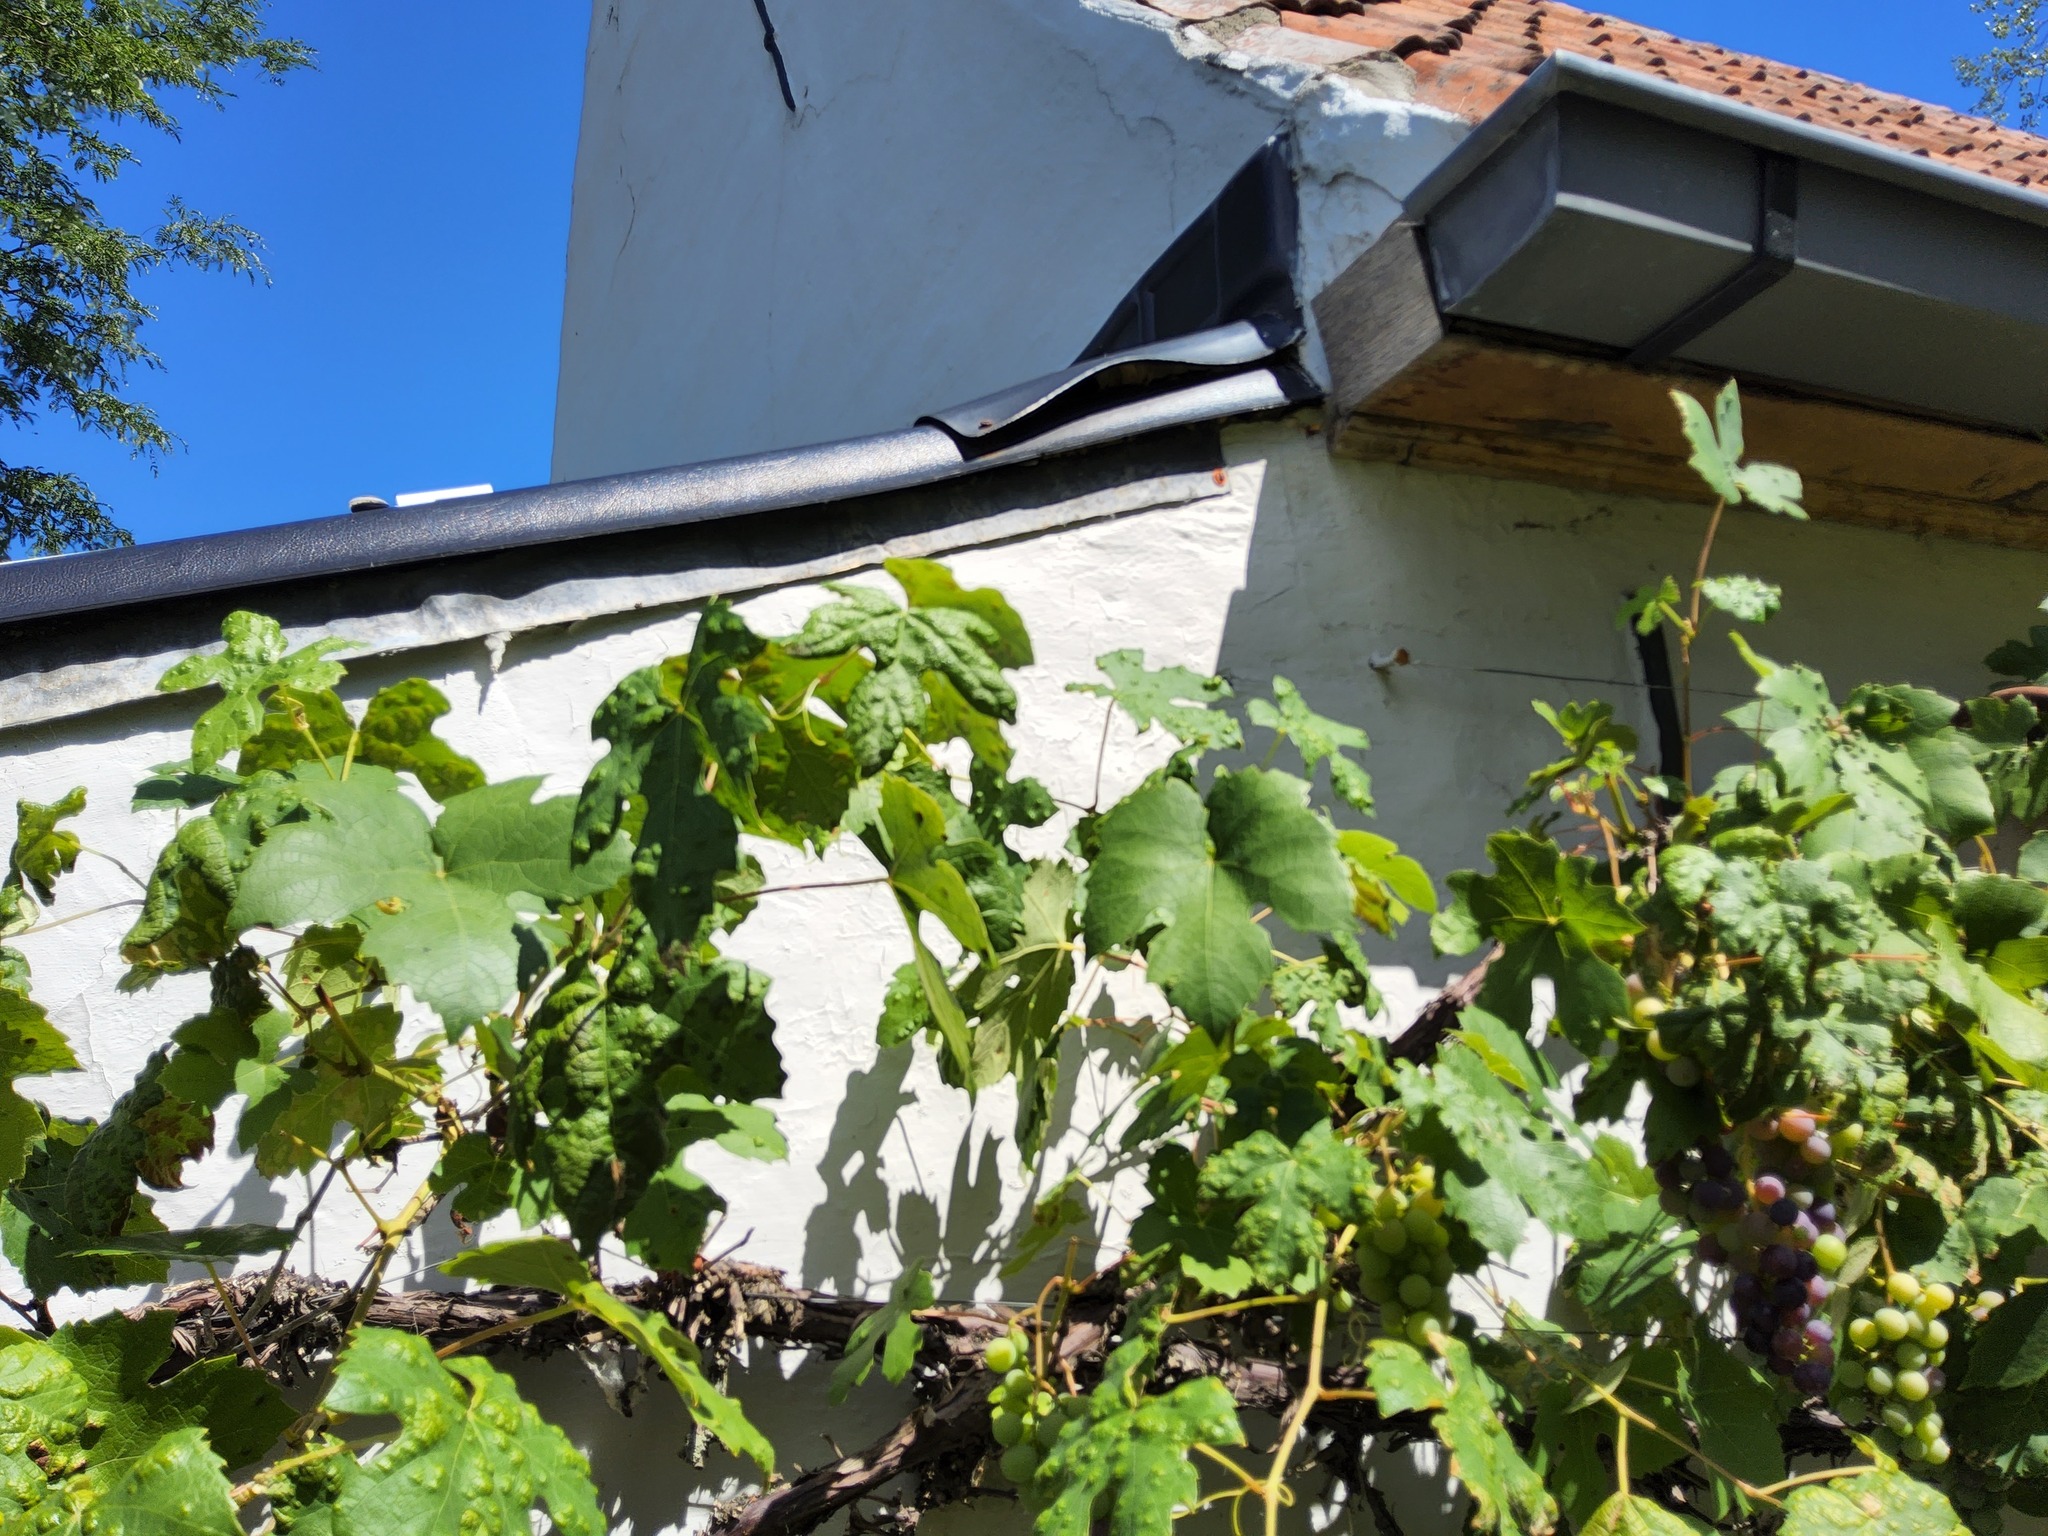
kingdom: Animalia
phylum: Arthropoda
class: Insecta
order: Hymenoptera
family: Vespidae
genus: Vespa
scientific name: Vespa crabro
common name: Hornet
